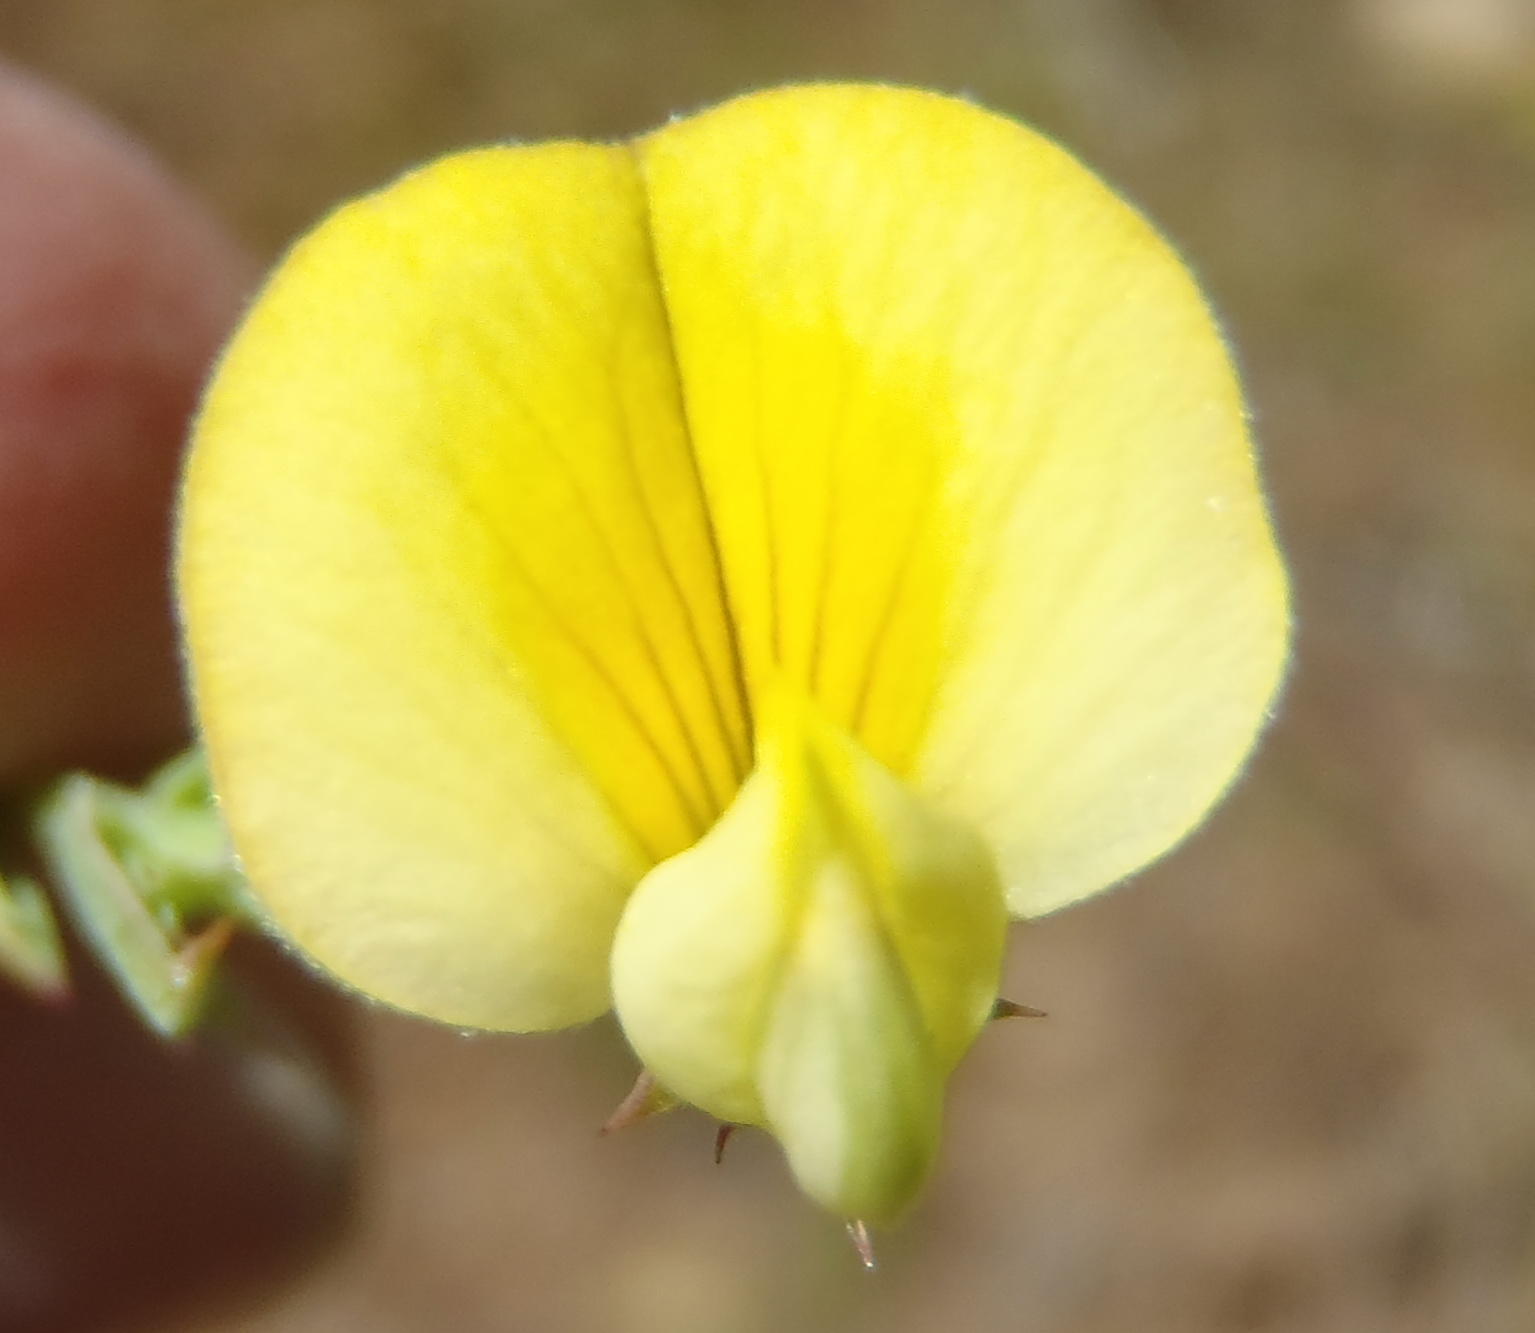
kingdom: Plantae
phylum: Tracheophyta
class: Magnoliopsida
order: Fabales
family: Fabaceae
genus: Aspalathus
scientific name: Aspalathus alpestris
